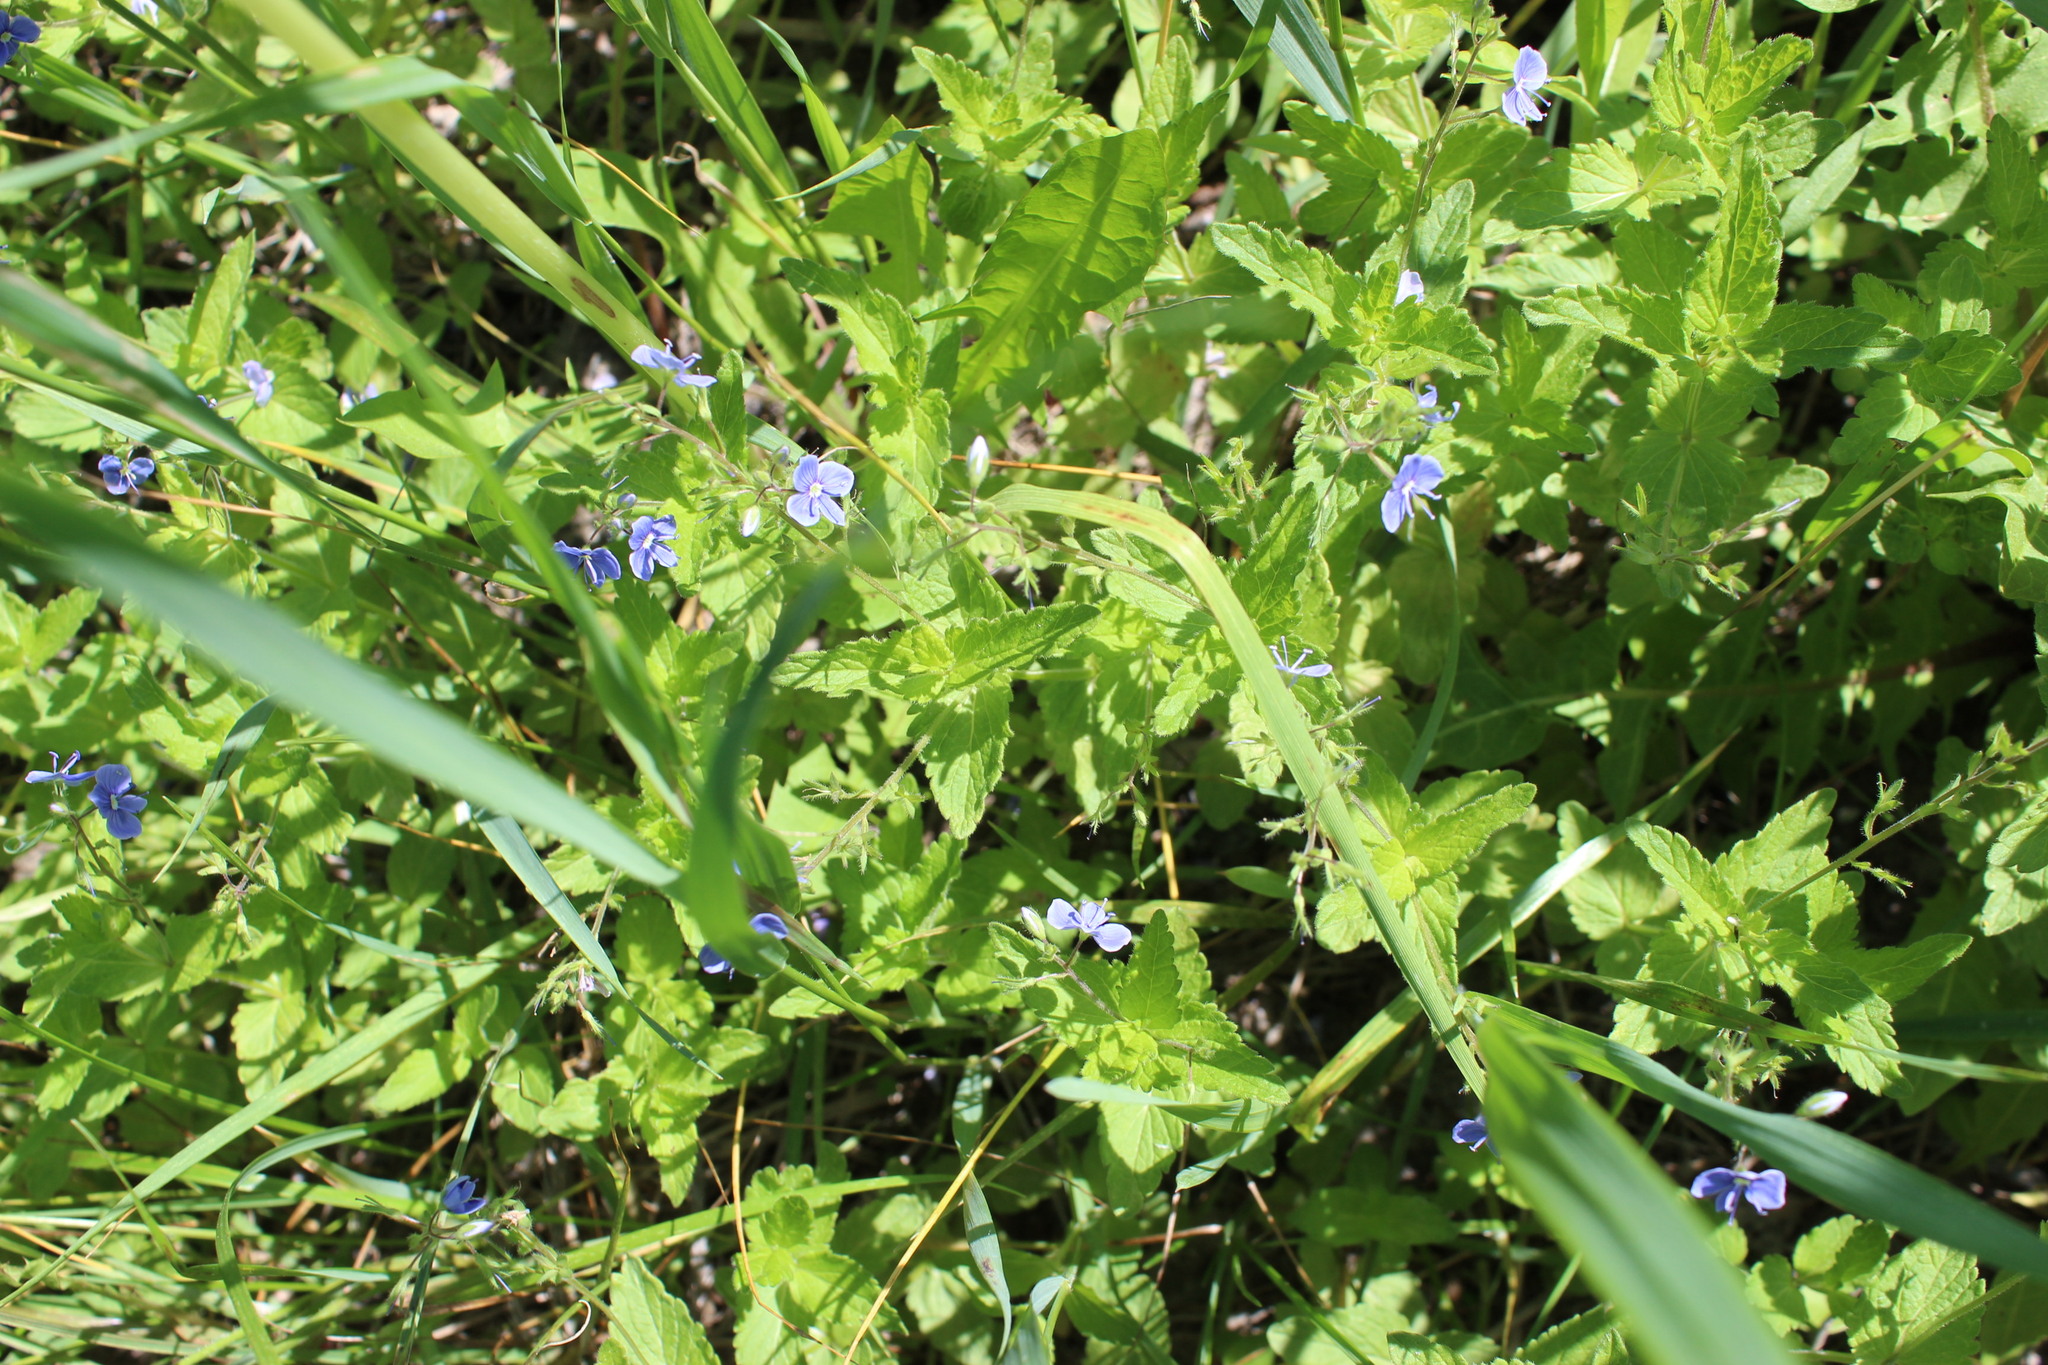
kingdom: Plantae
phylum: Tracheophyta
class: Magnoliopsida
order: Lamiales
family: Plantaginaceae
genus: Veronica
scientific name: Veronica chamaedrys
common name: Germander speedwell
